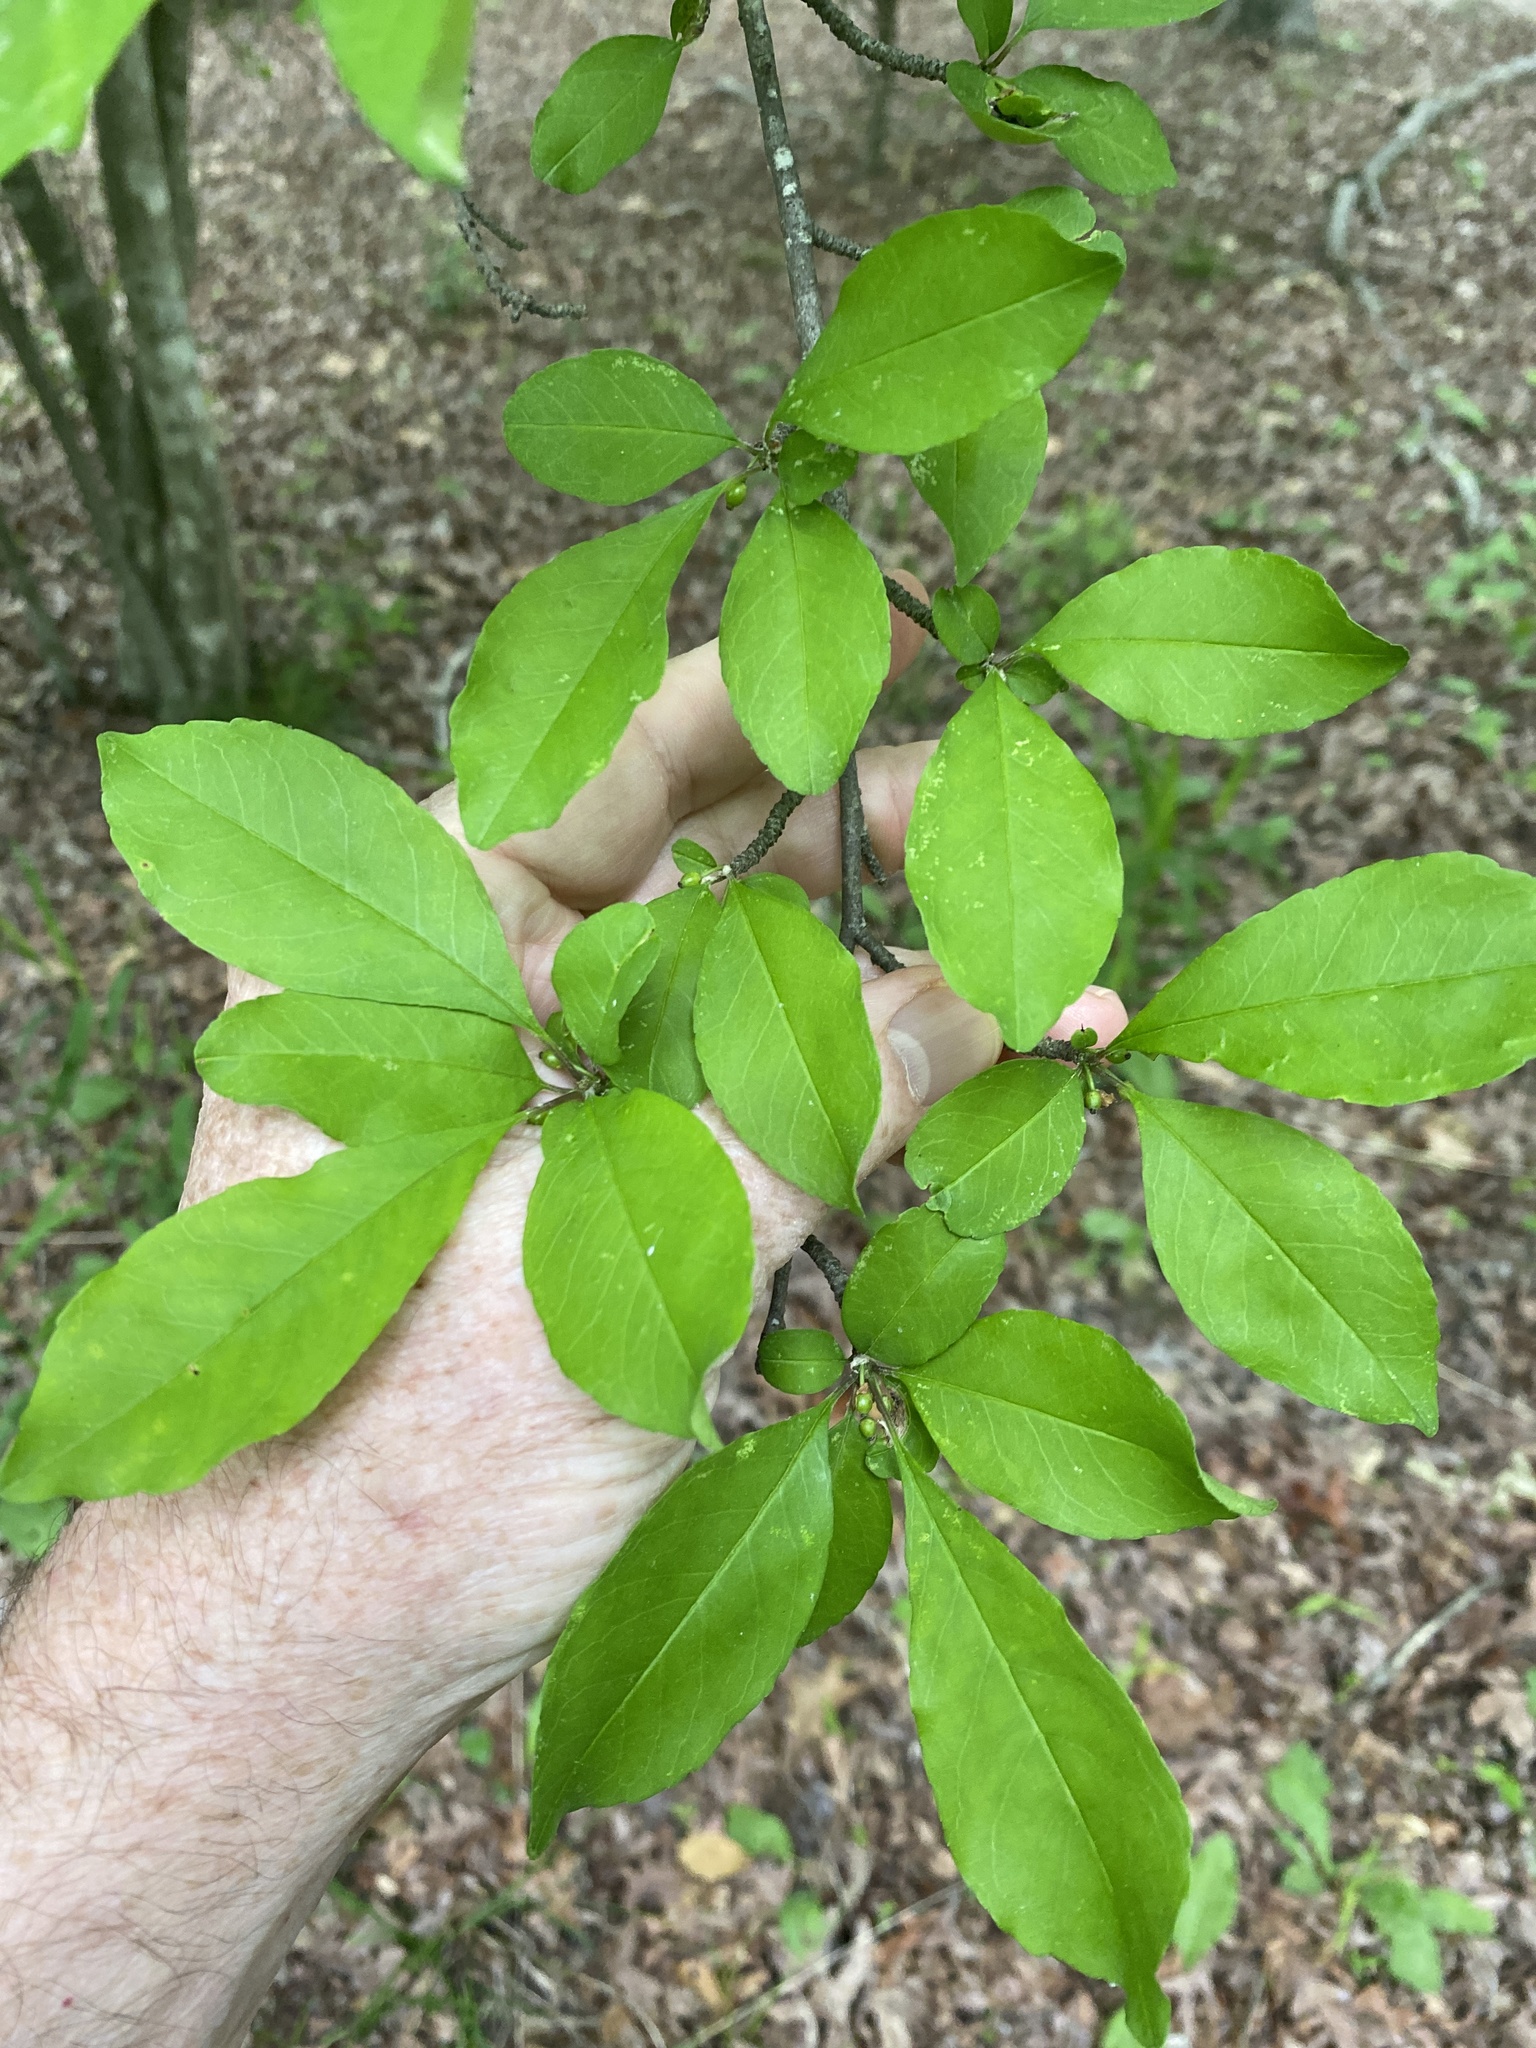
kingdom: Plantae
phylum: Tracheophyta
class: Magnoliopsida
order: Aquifoliales
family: Aquifoliaceae
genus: Ilex
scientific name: Ilex decidua
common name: Possum-haw
